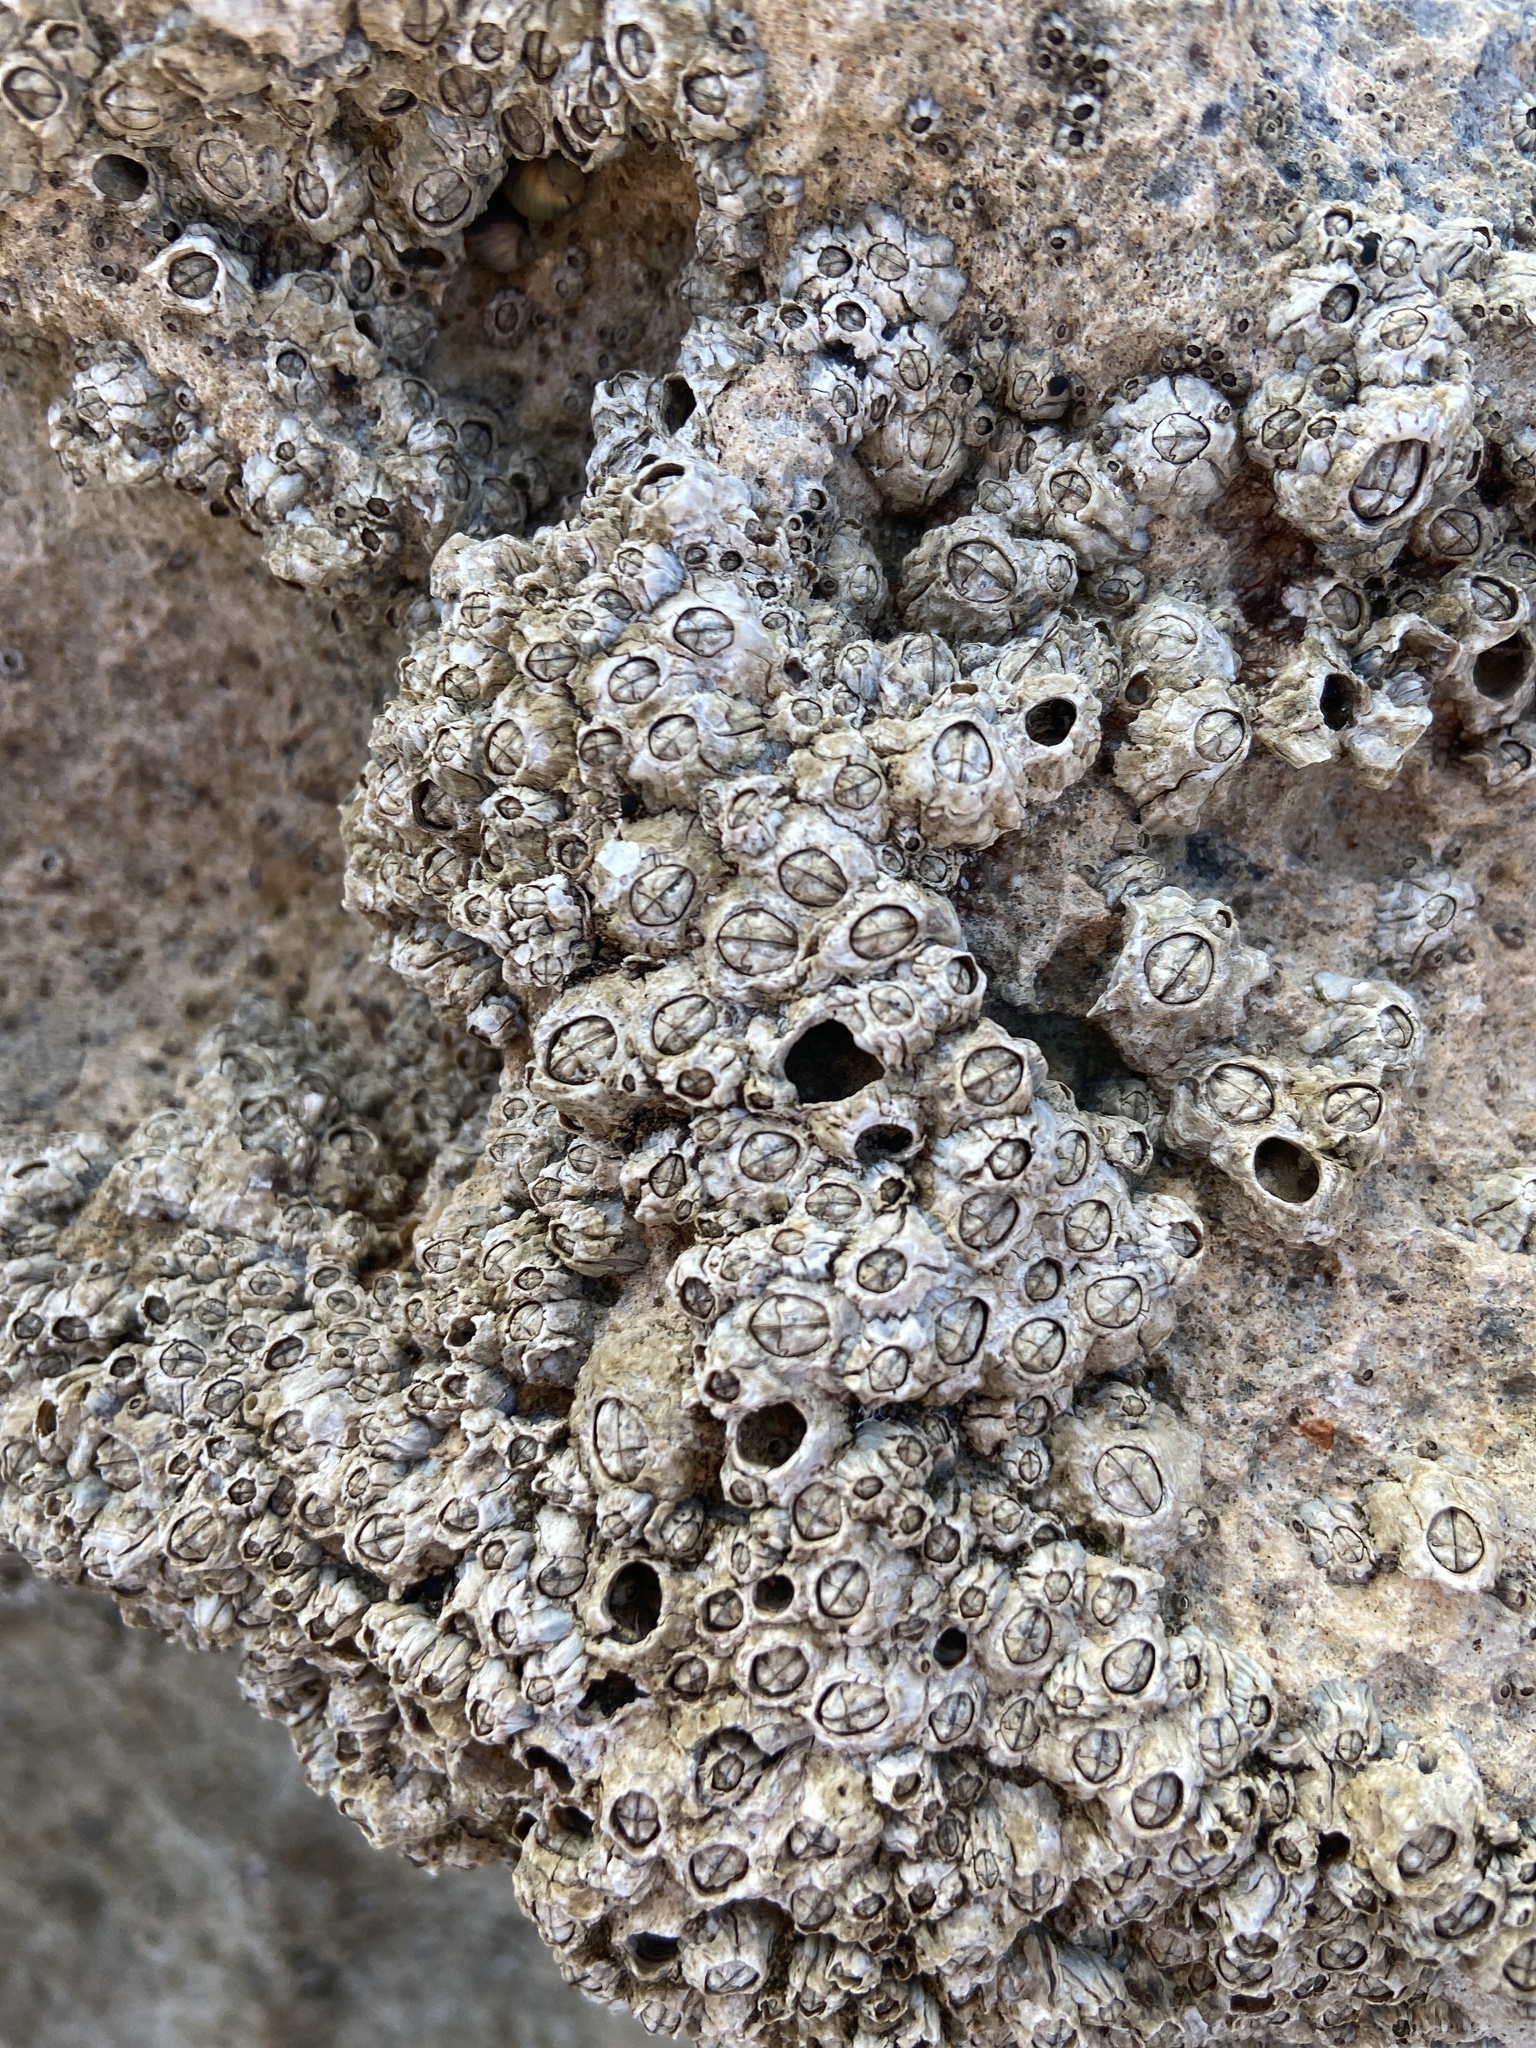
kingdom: Animalia
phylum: Arthropoda
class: Maxillopoda
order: Sessilia
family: Balanidae
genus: Perforatus
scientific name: Perforatus perforatus
